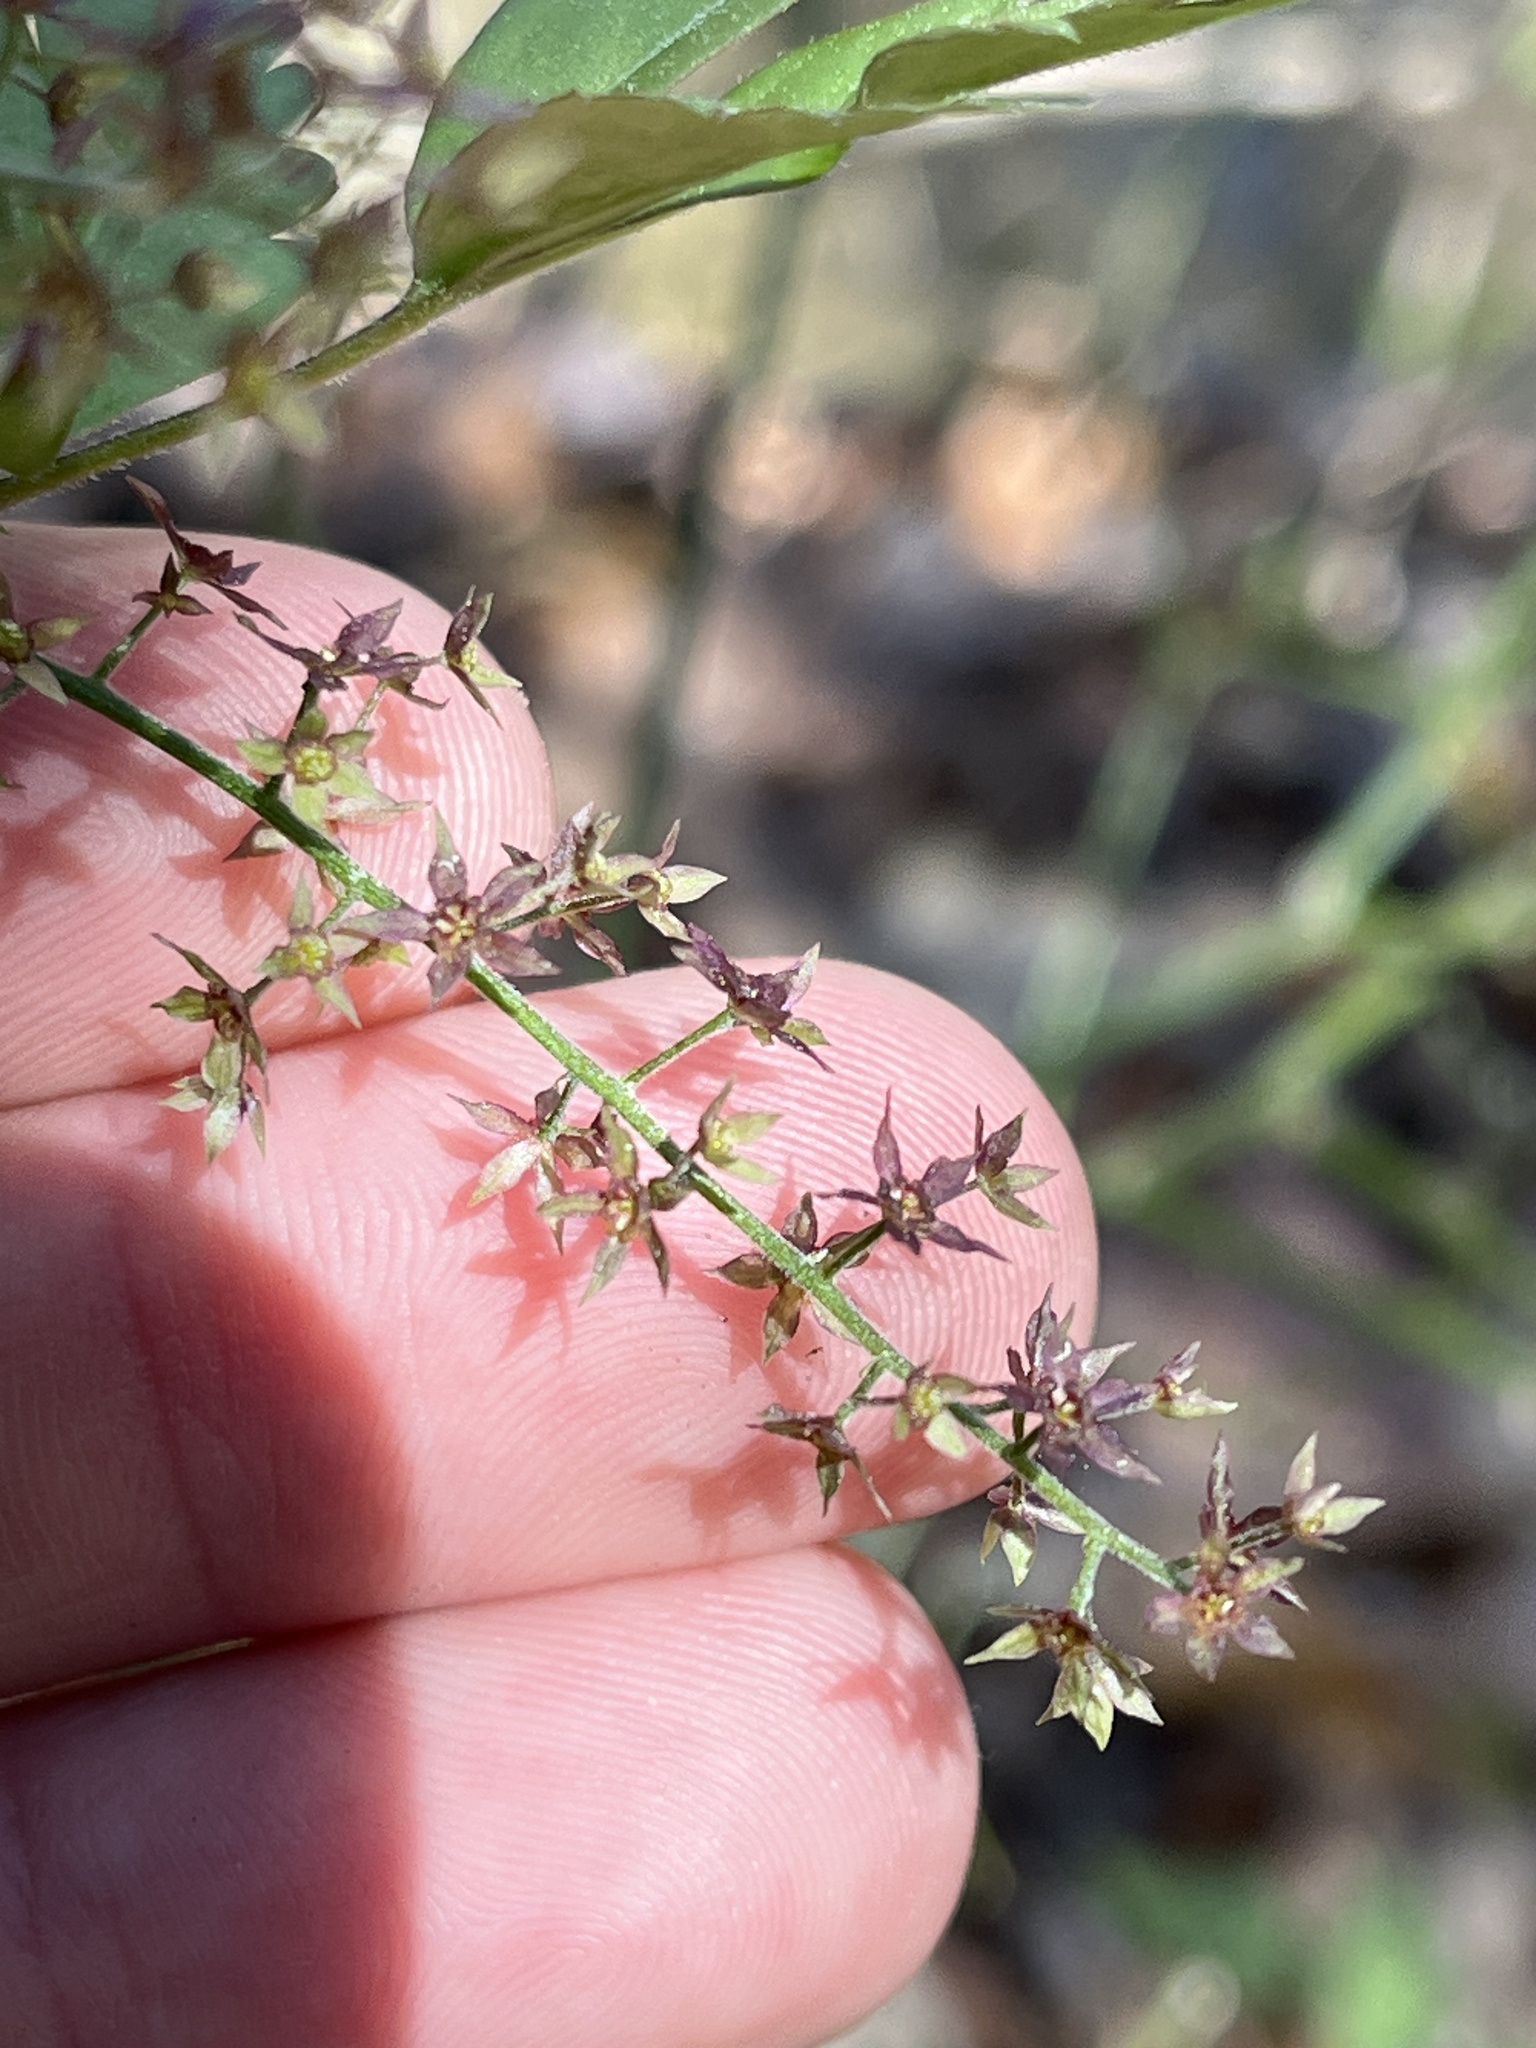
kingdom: Plantae
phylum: Tracheophyta
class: Magnoliopsida
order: Ranunculales
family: Ranunculaceae
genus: Xanthorhiza
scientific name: Xanthorhiza simplicissima
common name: Yellowroot
